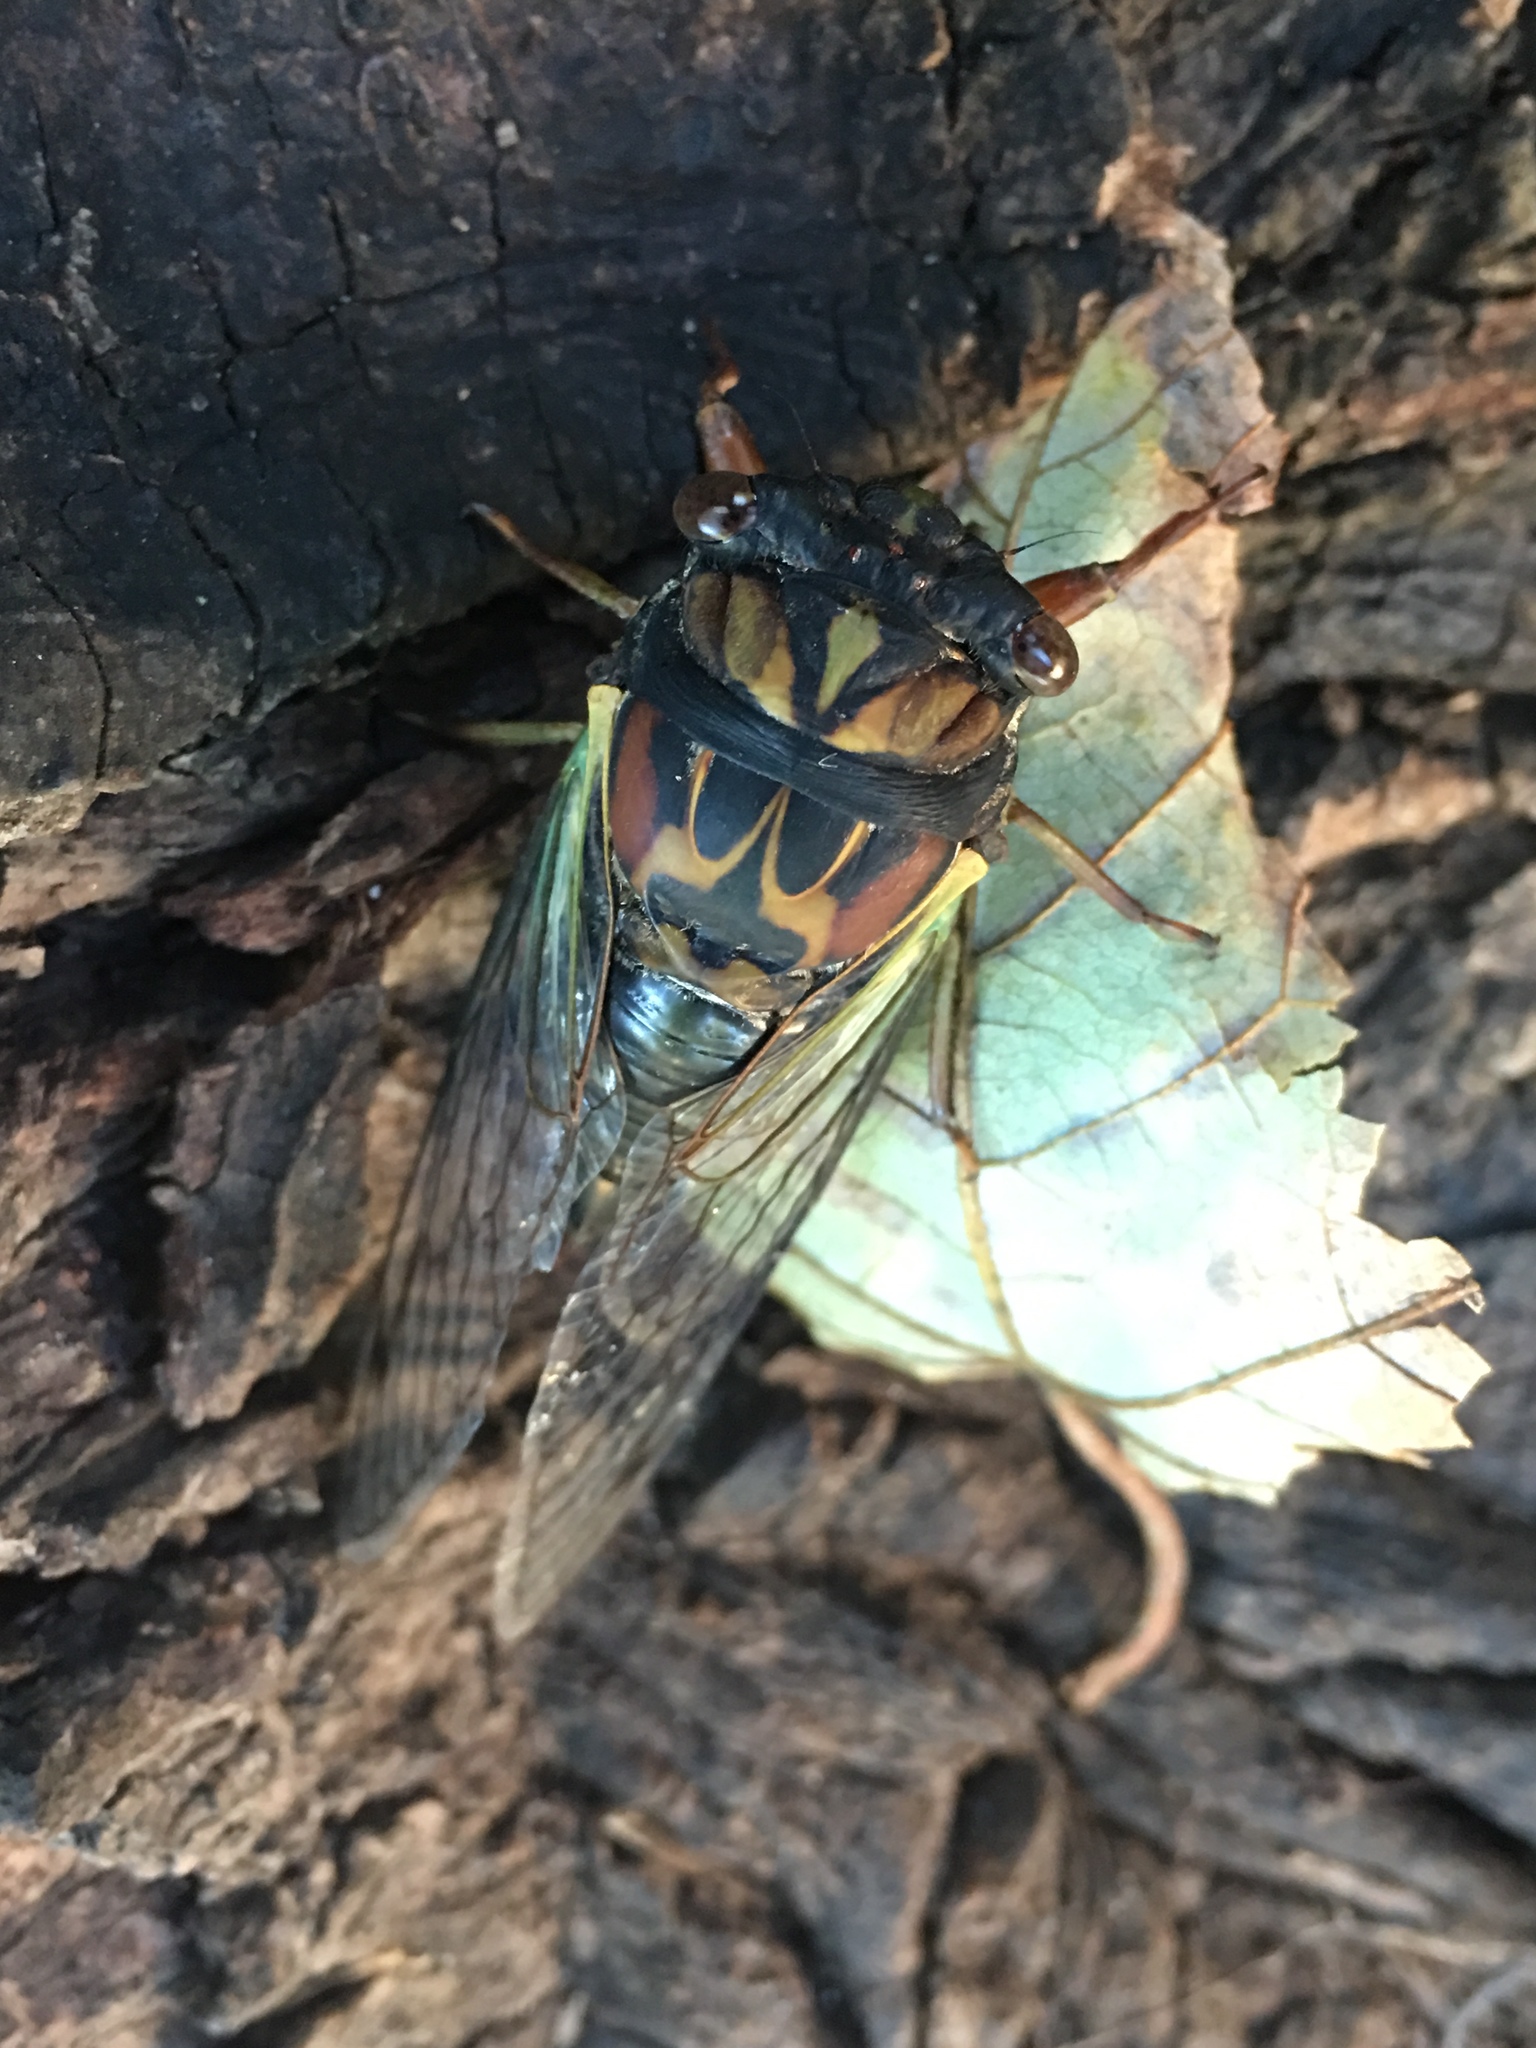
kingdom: Animalia
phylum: Arthropoda
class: Insecta
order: Hemiptera
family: Cicadidae
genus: Neotibicen
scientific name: Neotibicen lyricen
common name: Lyric cicada
